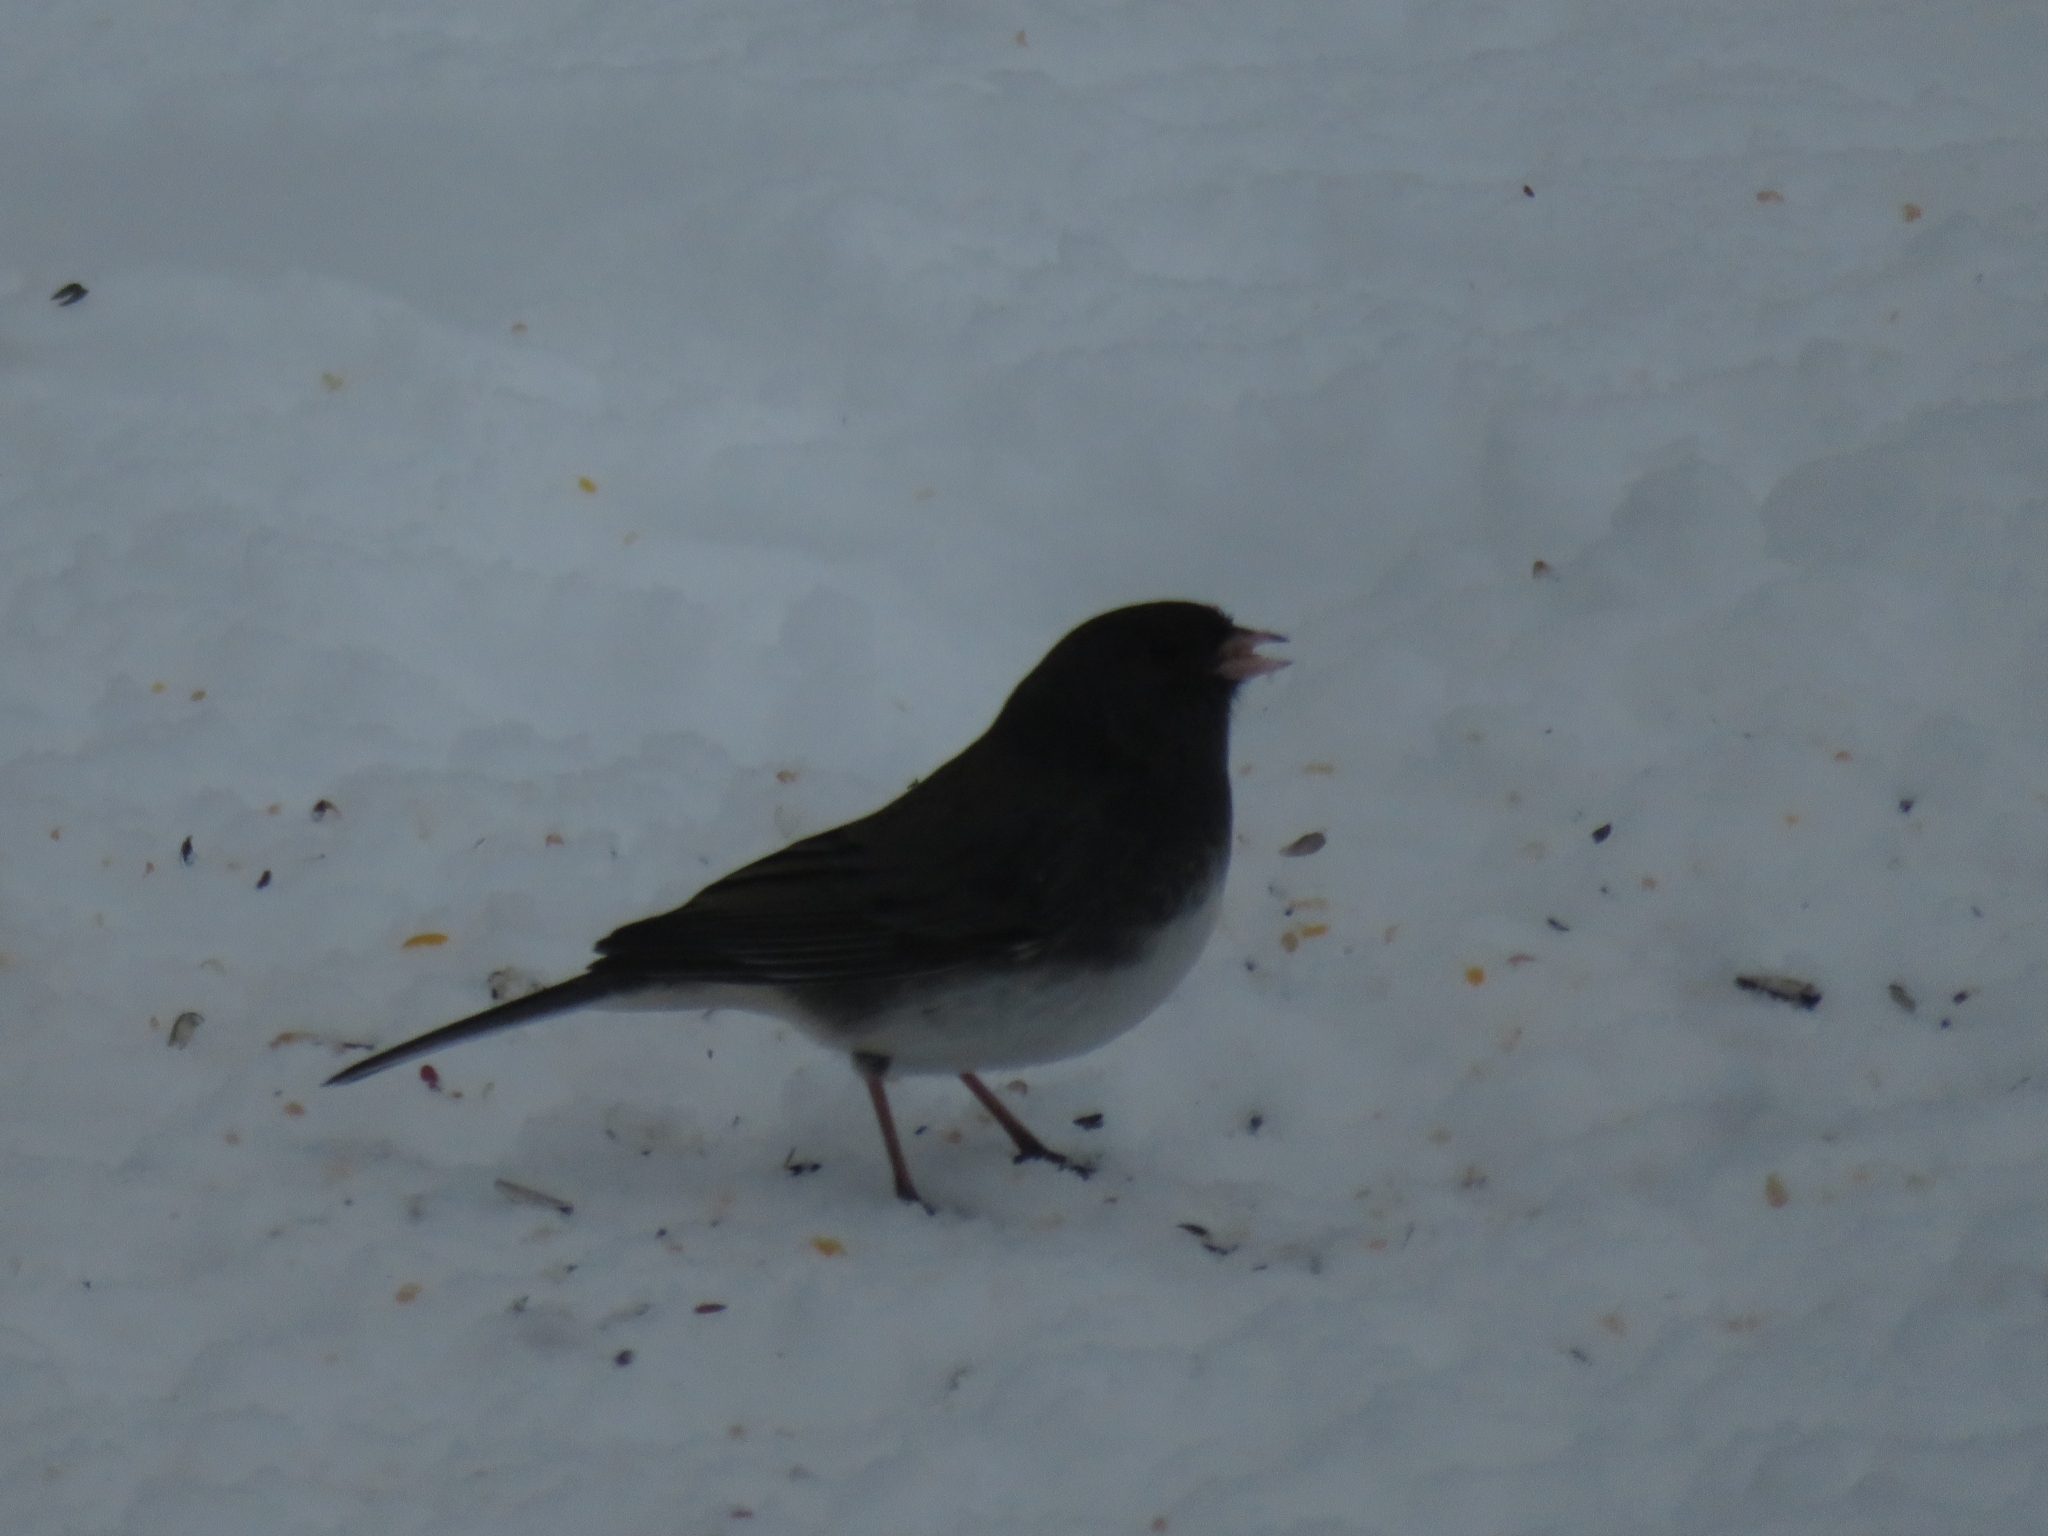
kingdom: Animalia
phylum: Chordata
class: Aves
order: Passeriformes
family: Passerellidae
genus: Junco
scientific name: Junco hyemalis
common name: Dark-eyed junco
